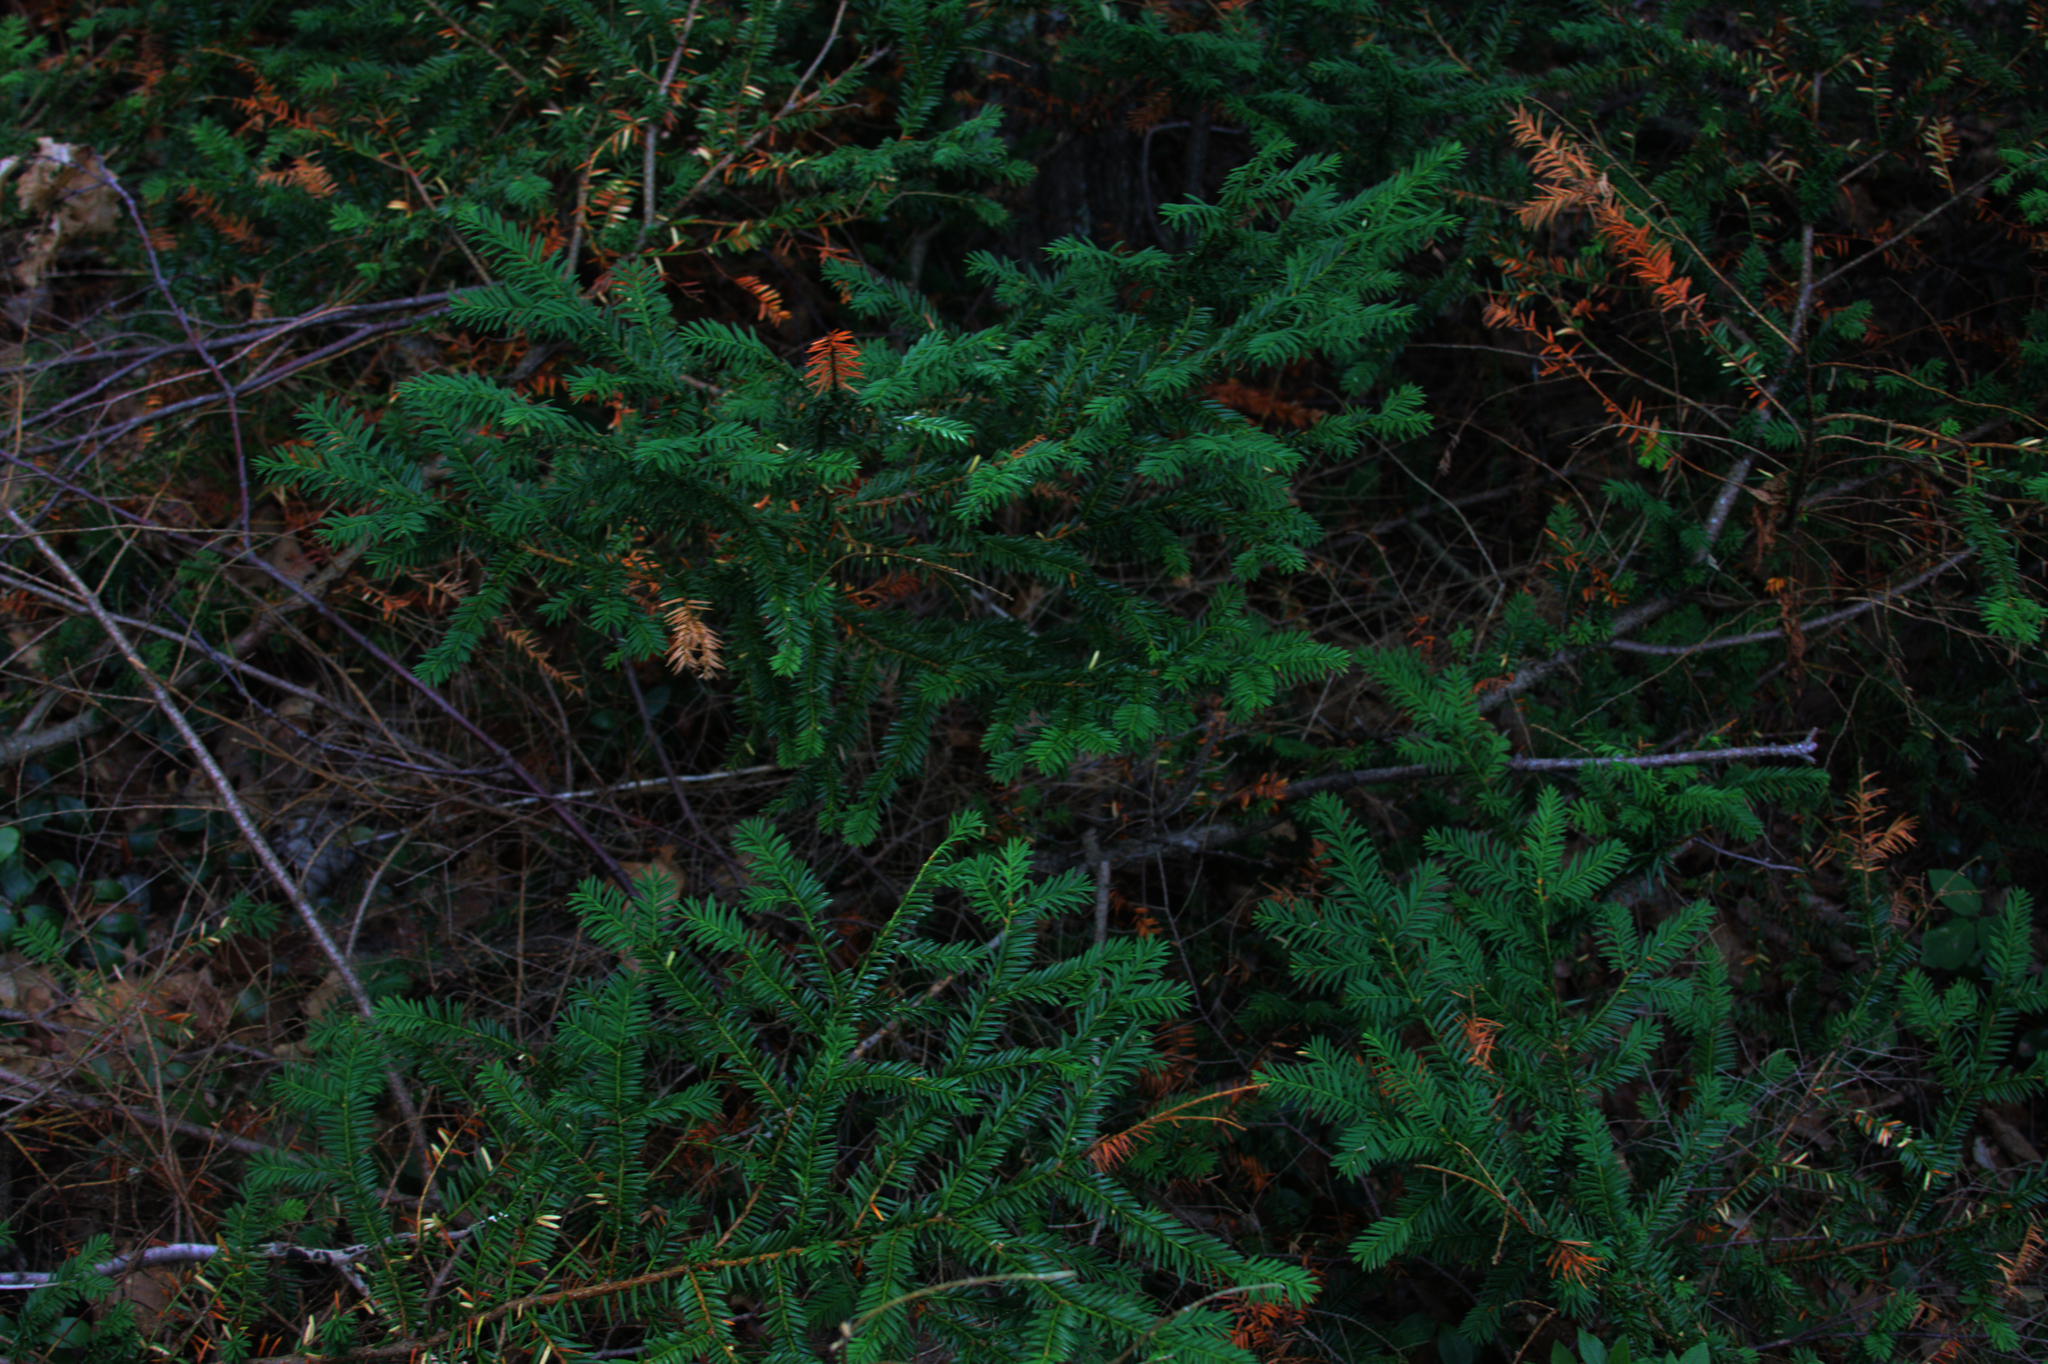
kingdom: Plantae
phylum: Tracheophyta
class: Pinopsida
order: Pinales
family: Taxaceae
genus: Taxus
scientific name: Taxus canadensis
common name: American yew
